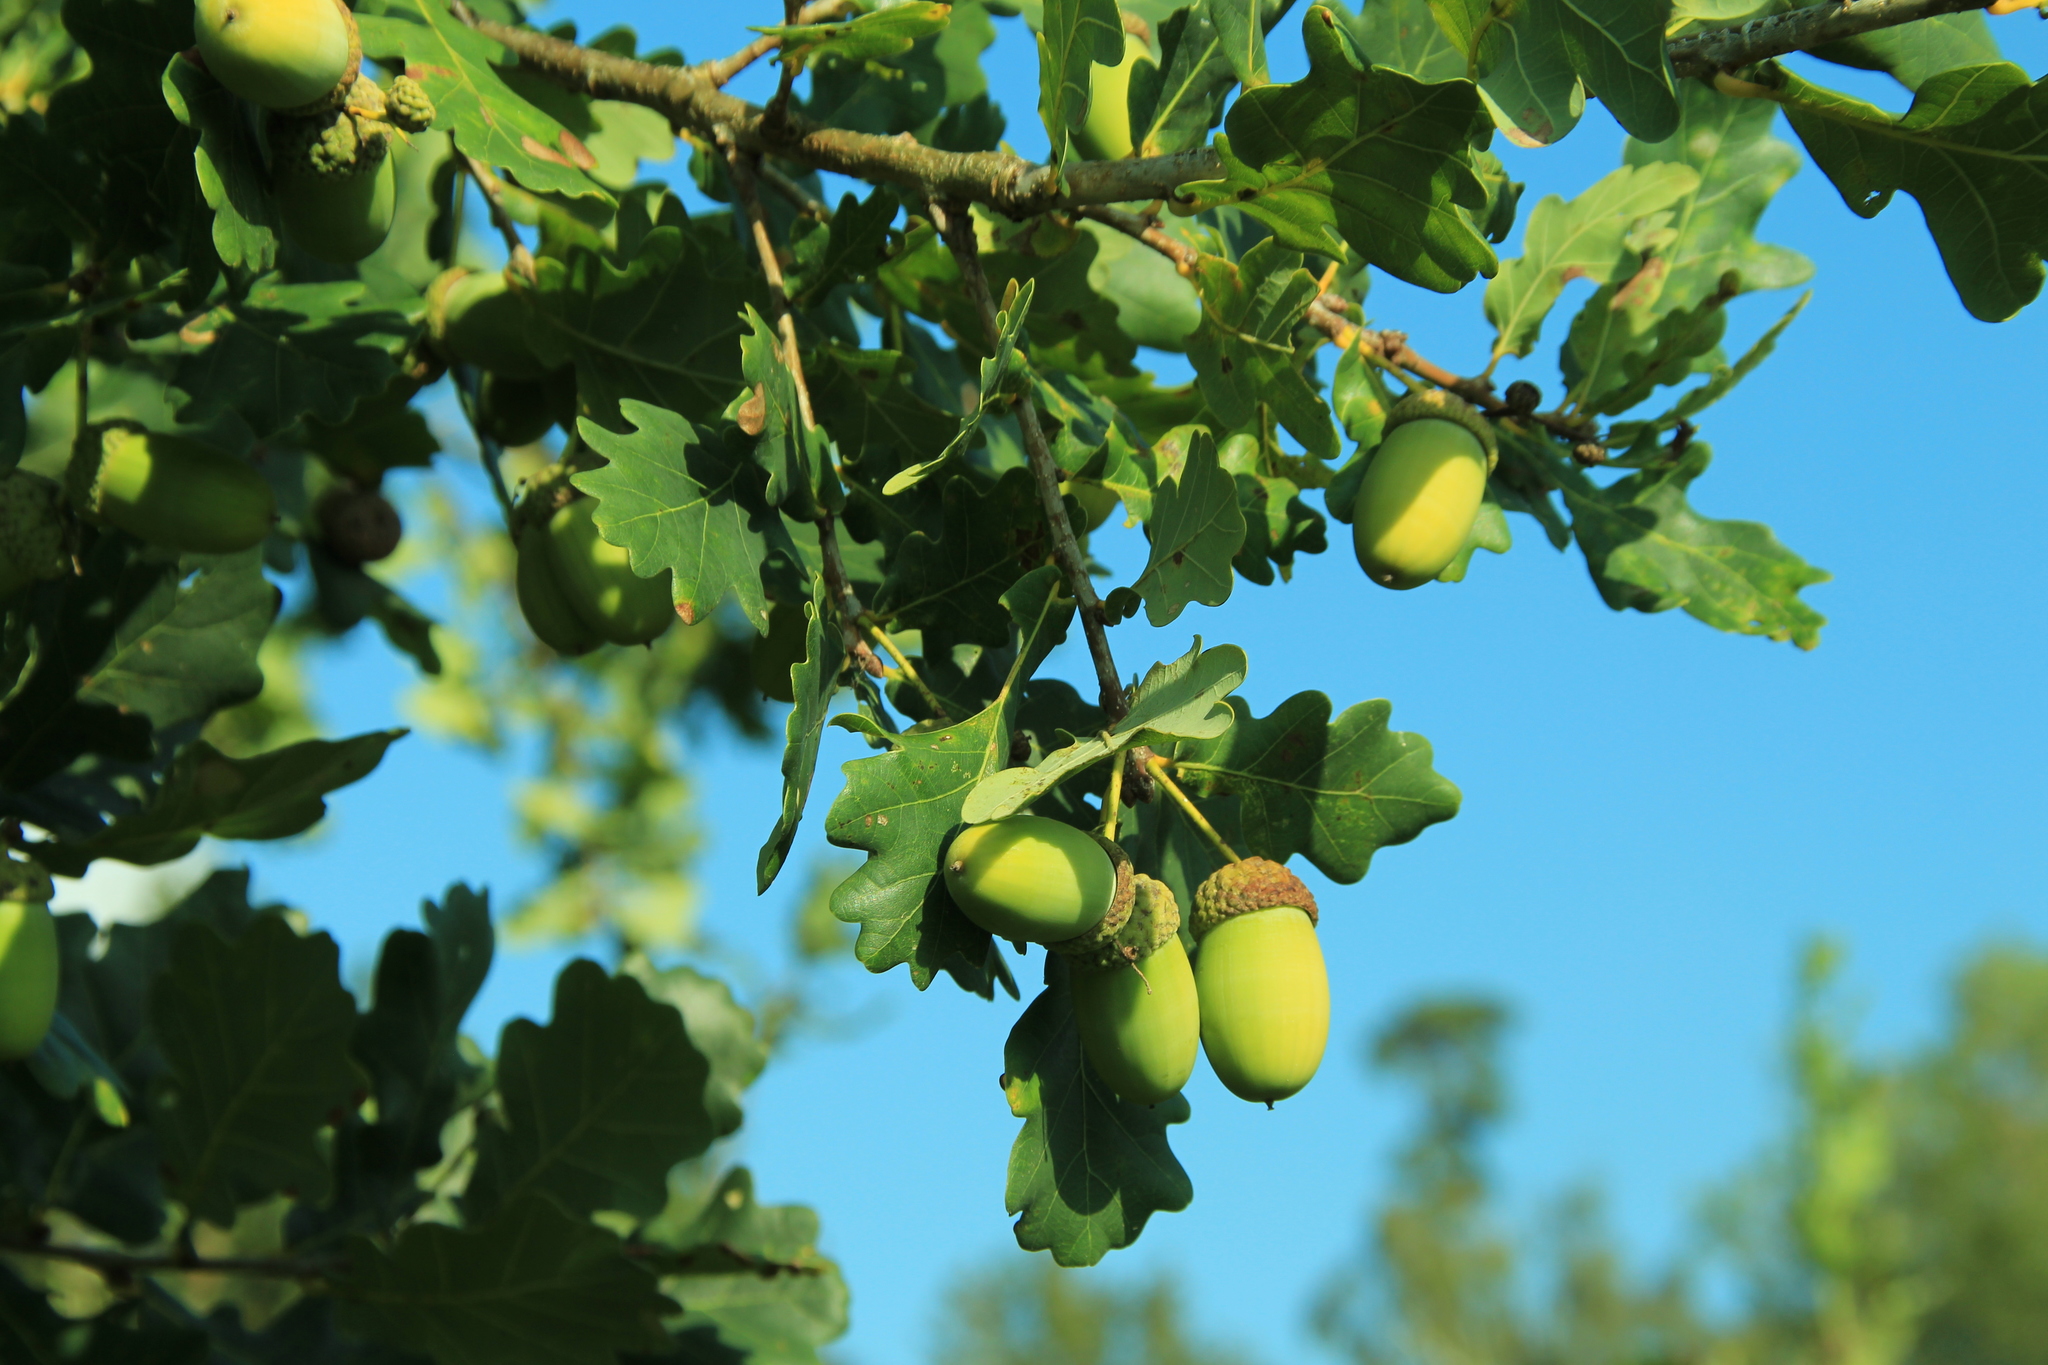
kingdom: Plantae
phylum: Tracheophyta
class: Magnoliopsida
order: Fagales
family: Fagaceae
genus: Quercus
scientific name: Quercus robur
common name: Pedunculate oak
